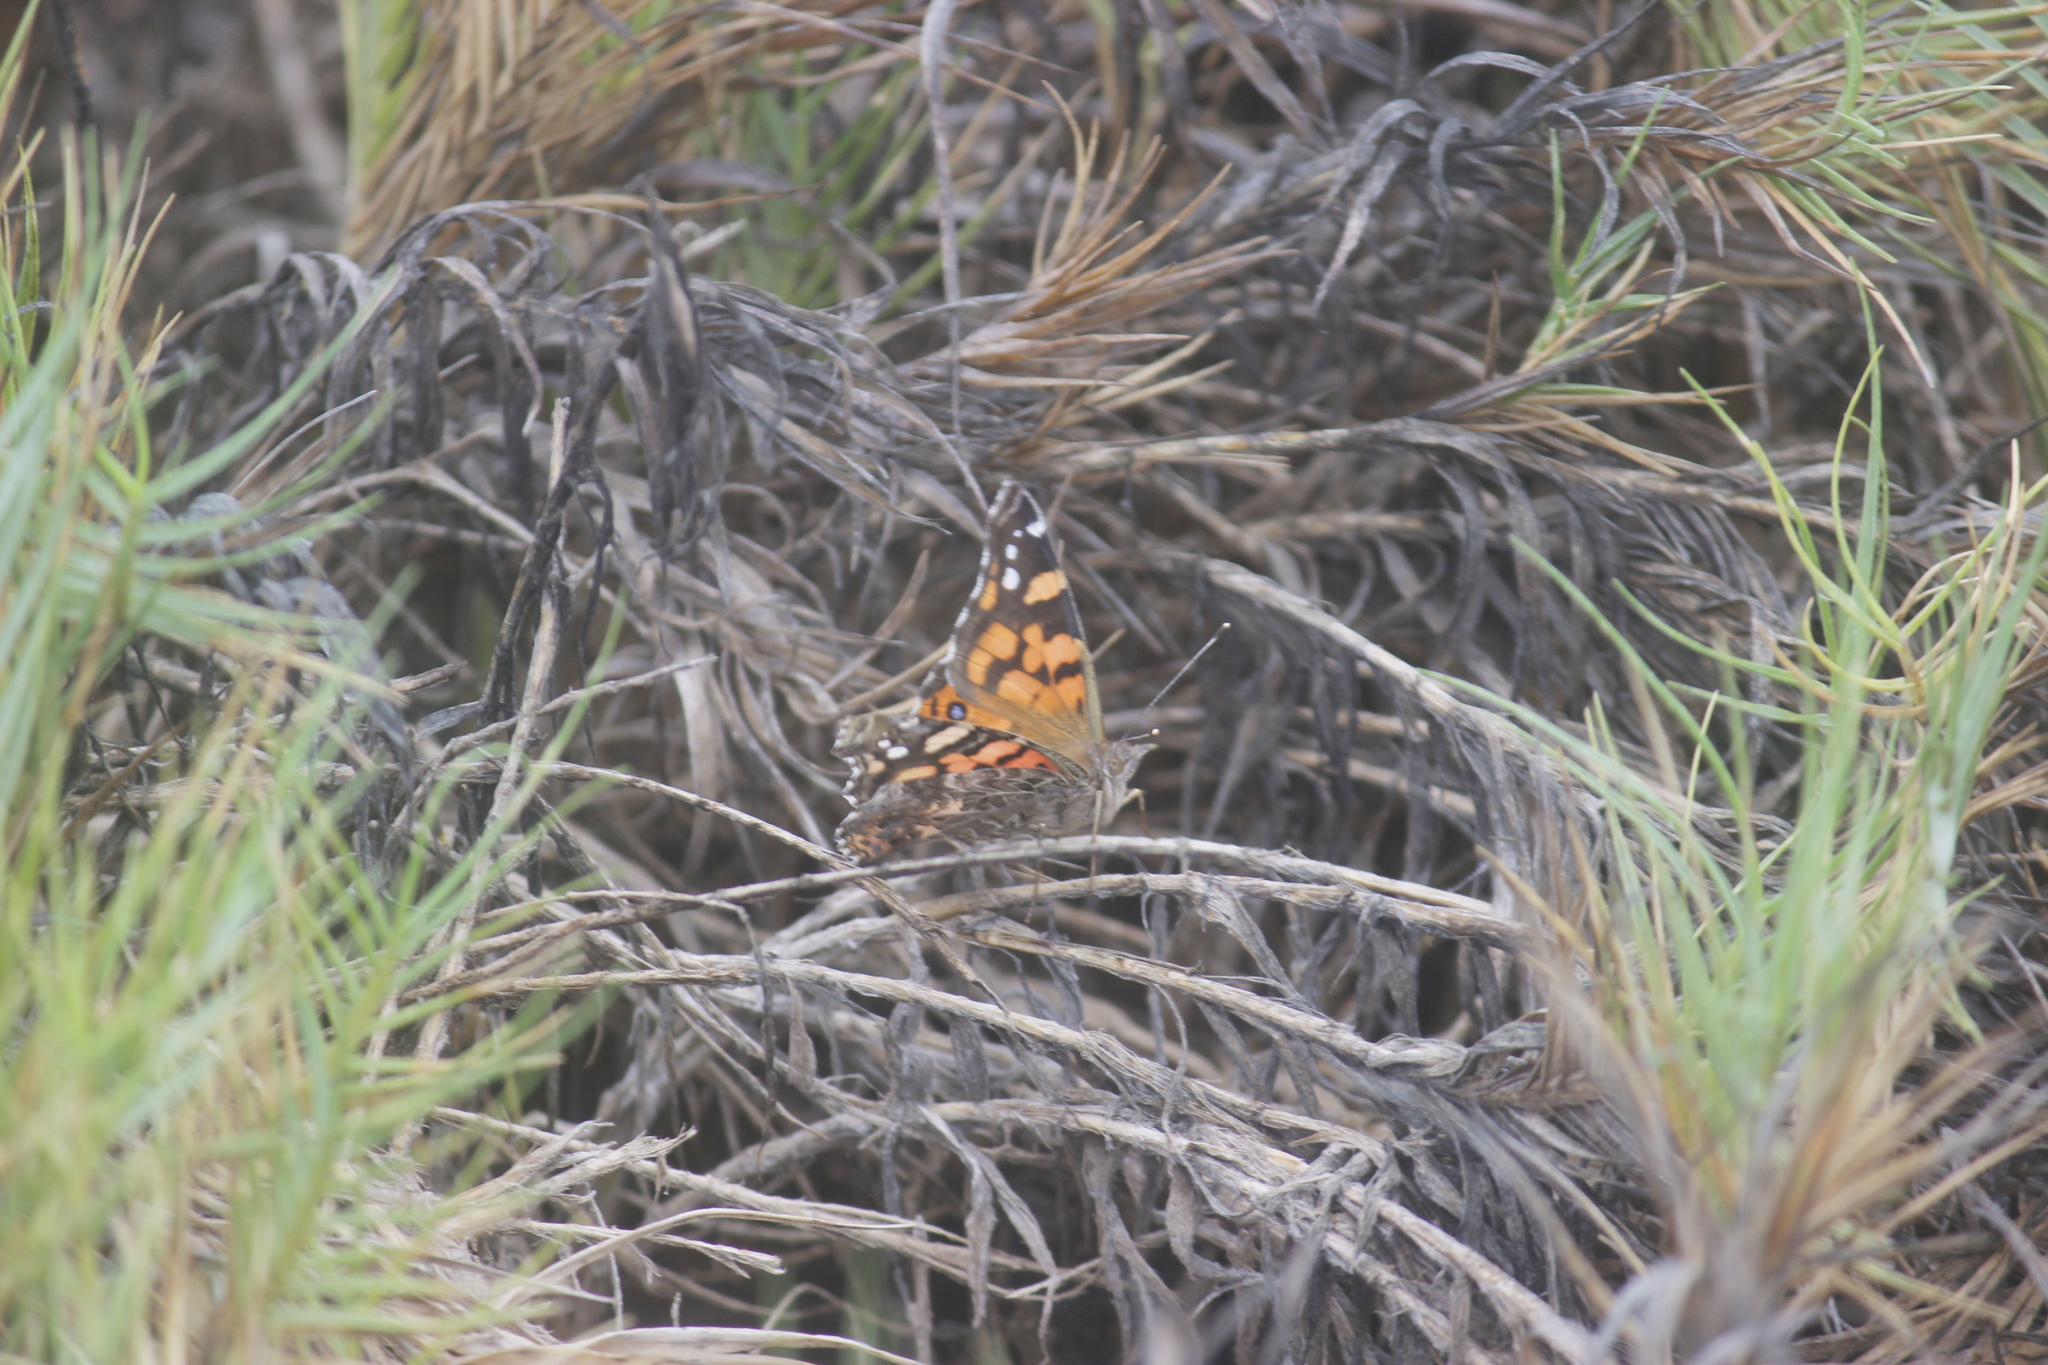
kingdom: Animalia
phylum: Arthropoda
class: Insecta
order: Lepidoptera
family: Nymphalidae
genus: Vanessa
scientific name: Vanessa carye
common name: Subtropical lady
